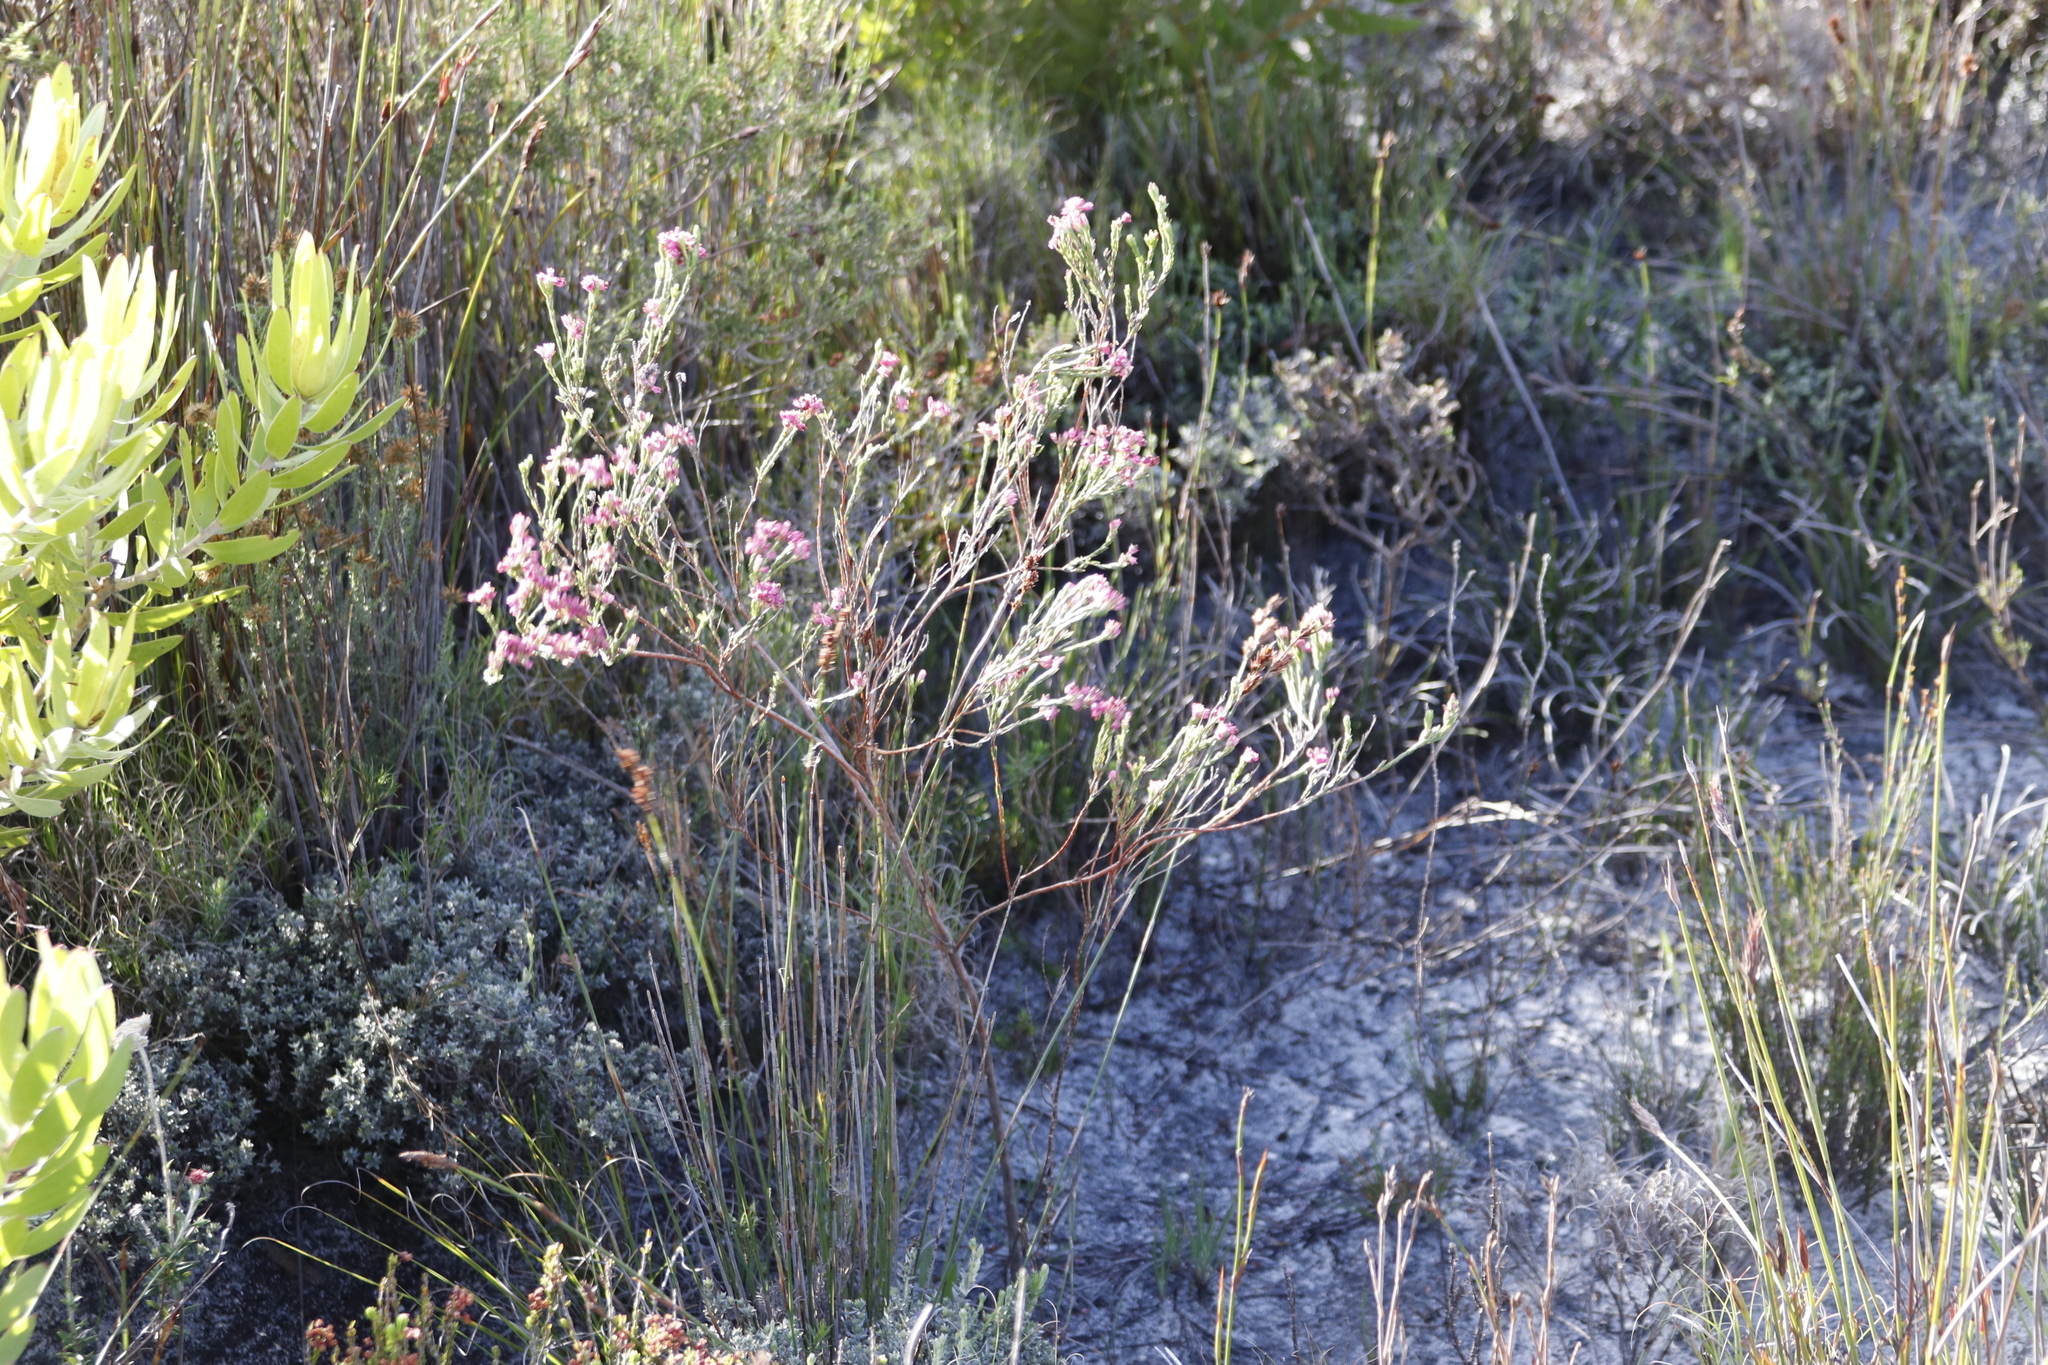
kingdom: Plantae
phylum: Tracheophyta
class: Magnoliopsida
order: Ericales
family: Ericaceae
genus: Erica
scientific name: Erica corifolia
